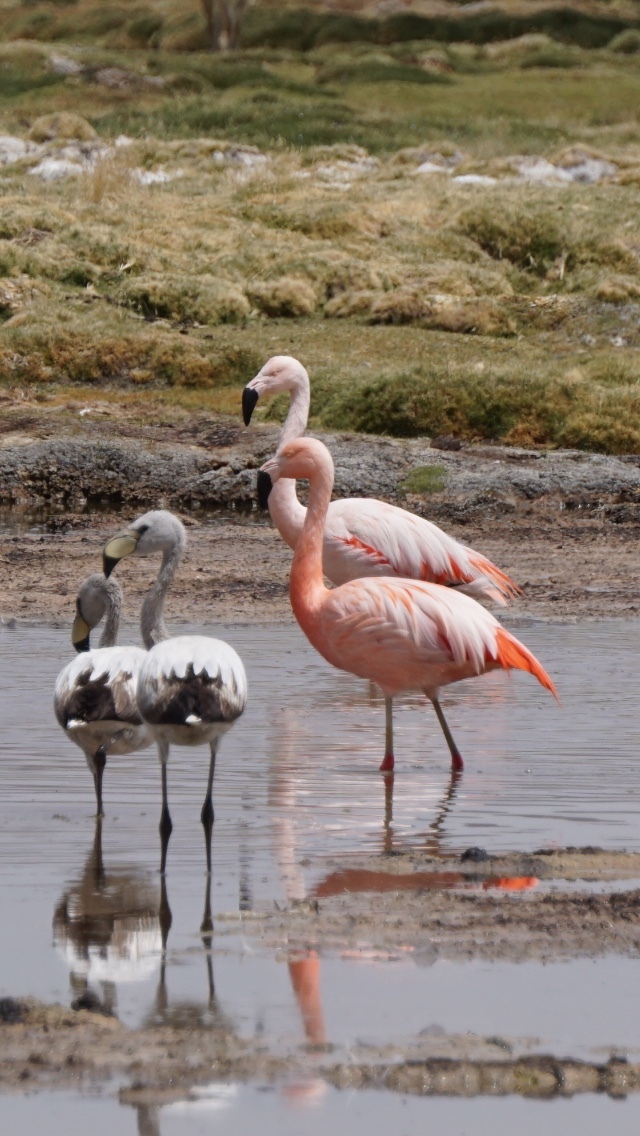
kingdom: Animalia
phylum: Chordata
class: Aves
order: Phoenicopteriformes
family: Phoenicopteridae
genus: Phoenicopterus
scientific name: Phoenicopterus chilensis
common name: Chilean flamingo
